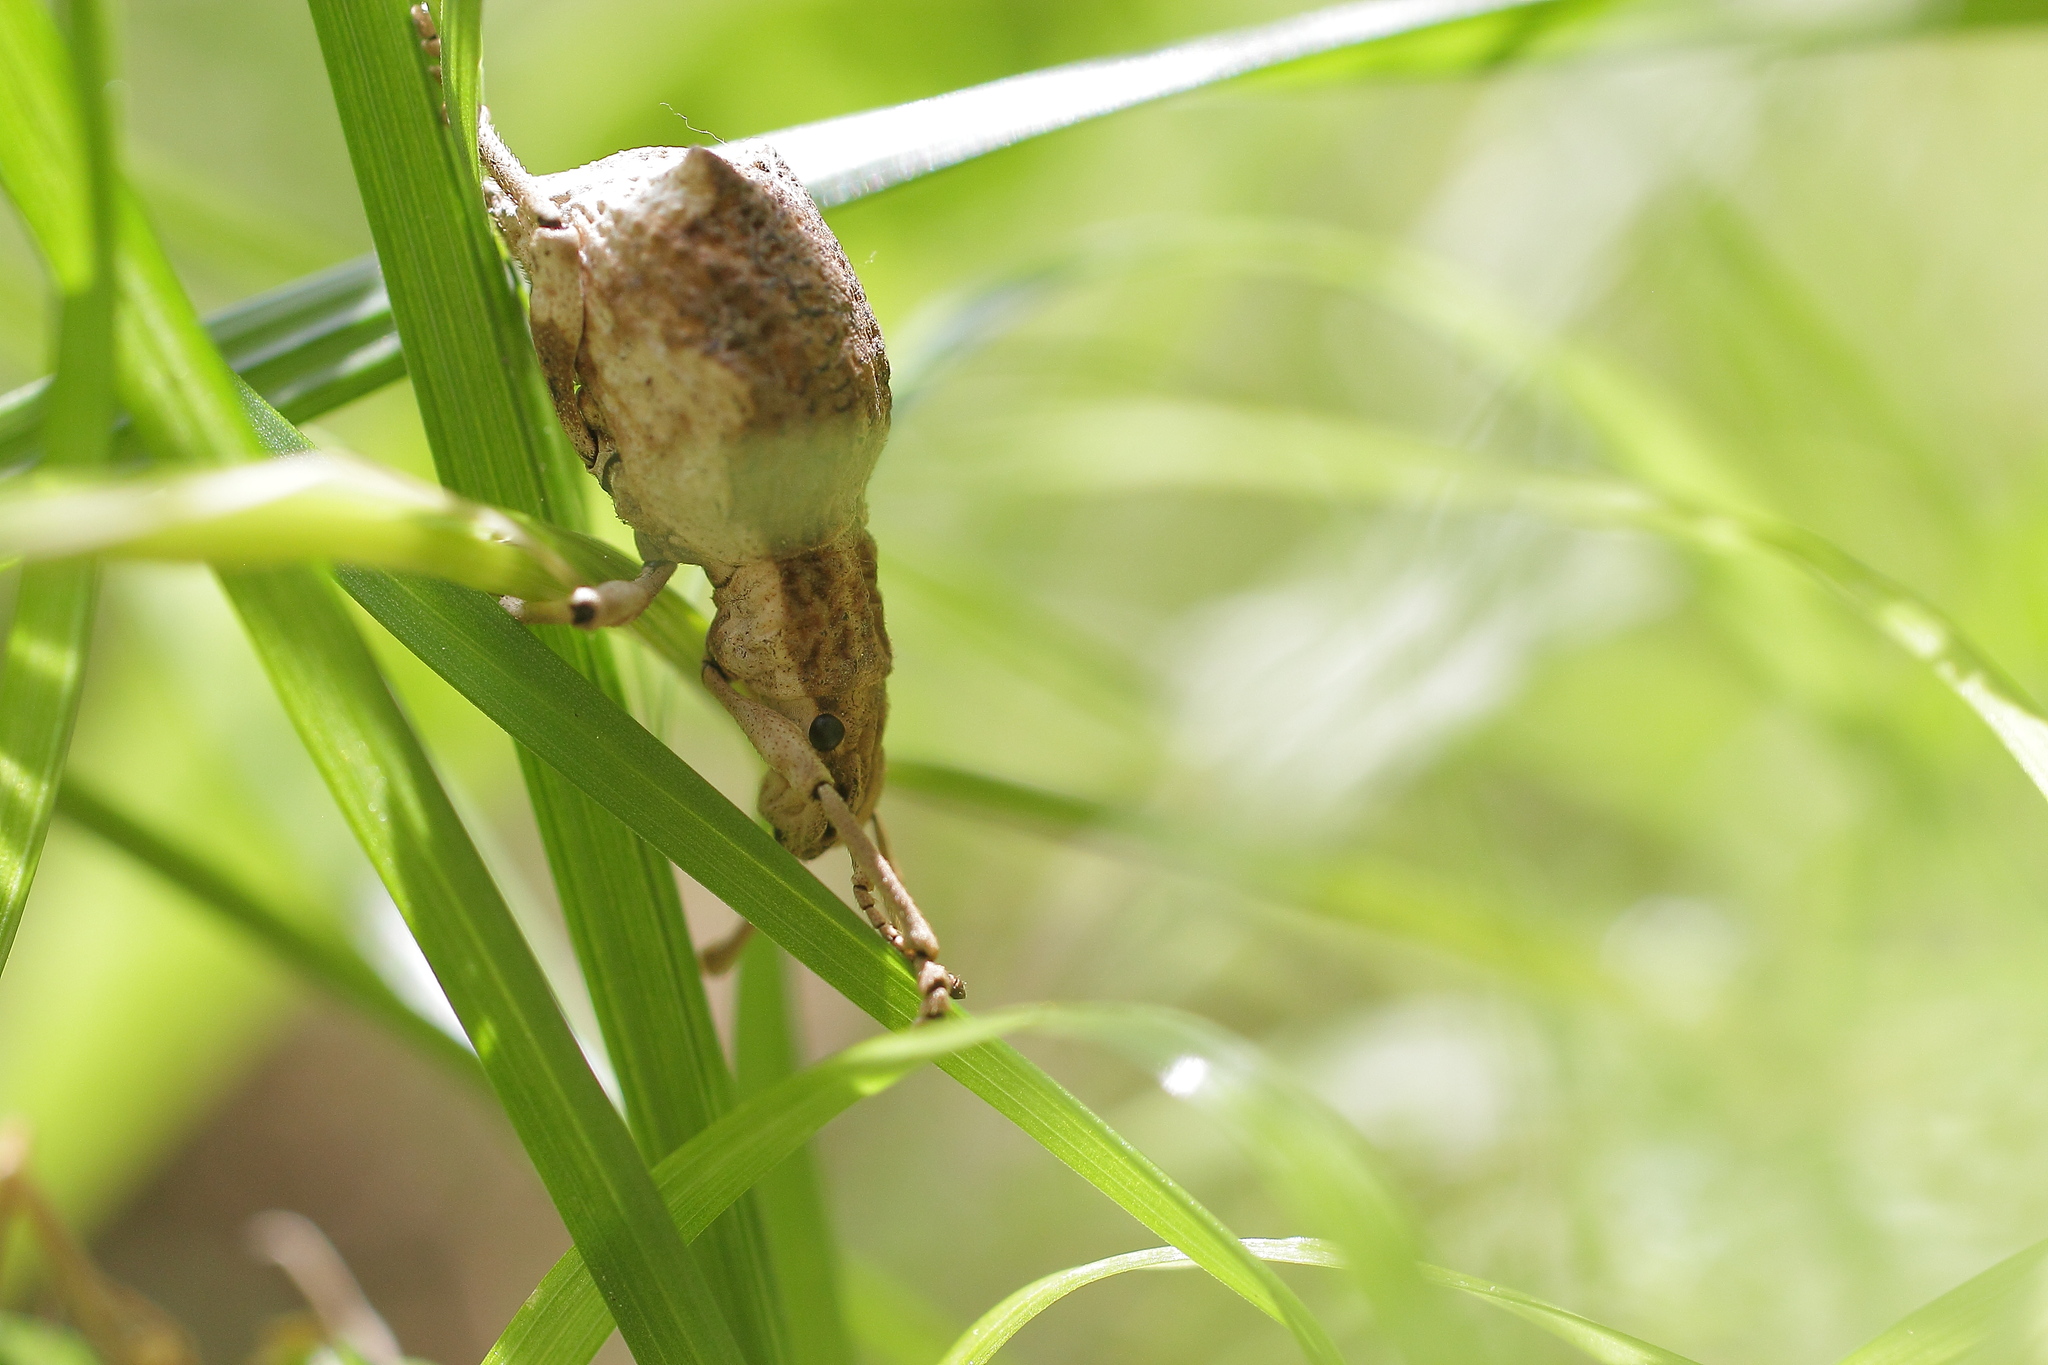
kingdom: Animalia
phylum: Arthropoda
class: Insecta
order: Coleoptera
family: Curculionidae
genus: Episomus
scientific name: Episomus turritus
